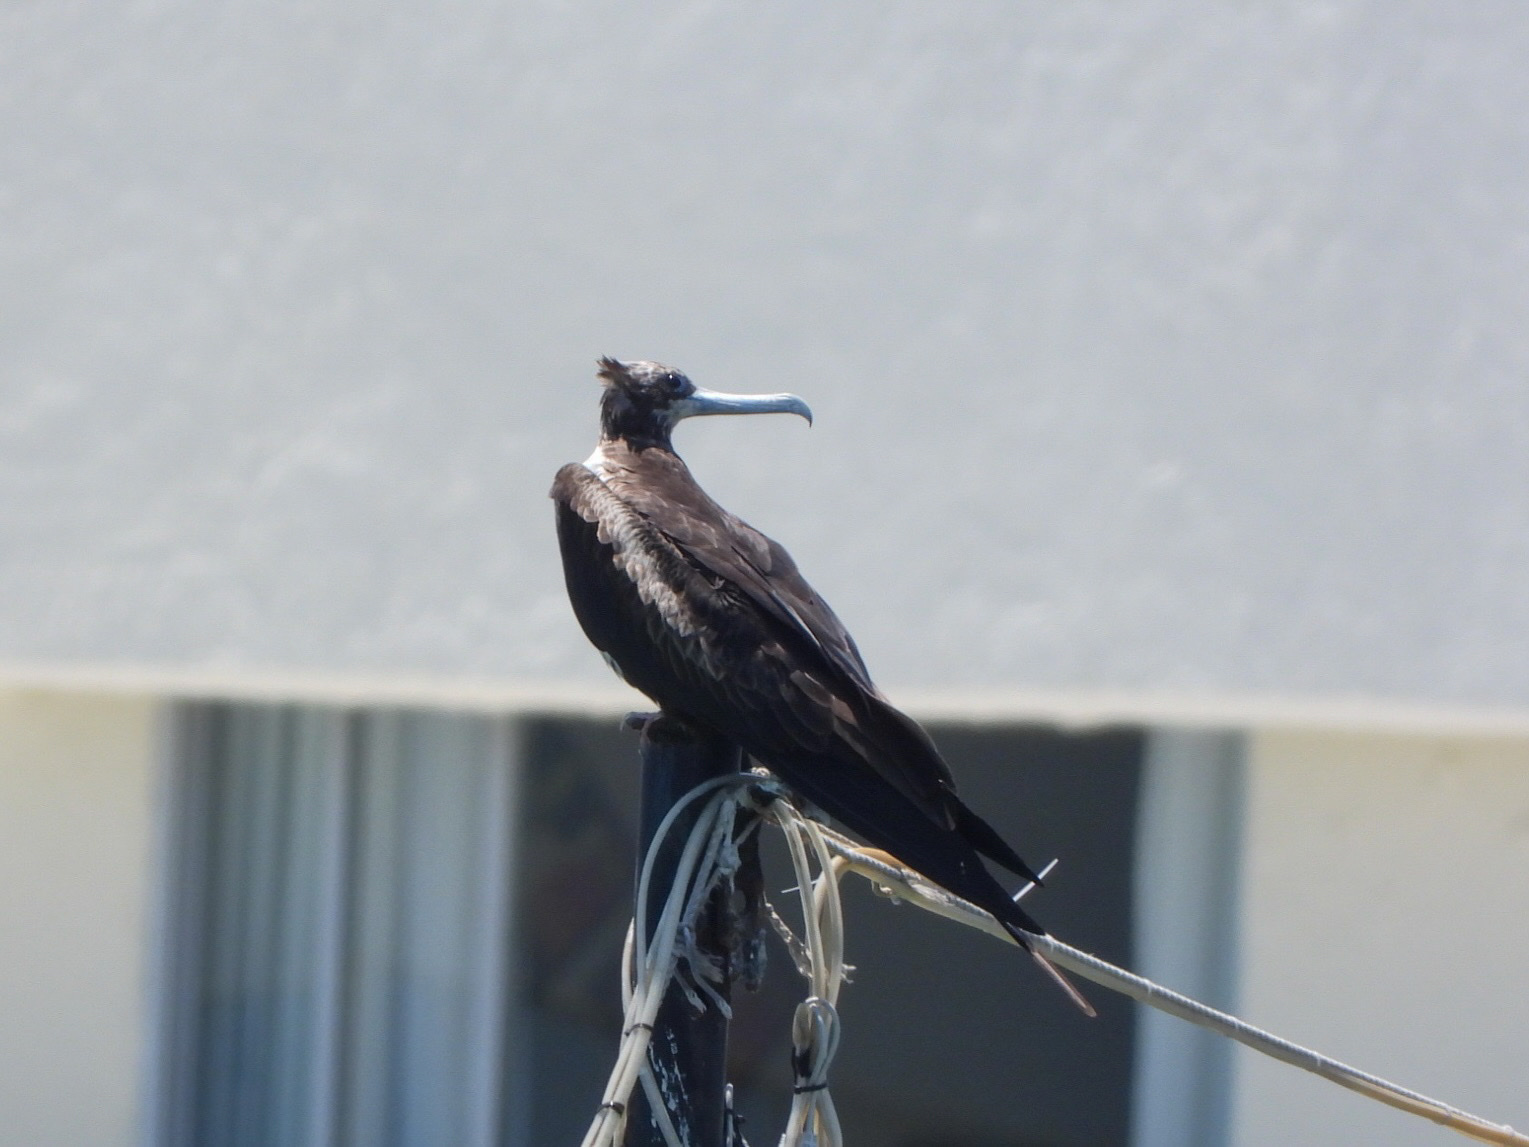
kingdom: Animalia
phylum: Chordata
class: Aves
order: Suliformes
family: Fregatidae
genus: Fregata
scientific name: Fregata magnificens
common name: Magnificent frigatebird
